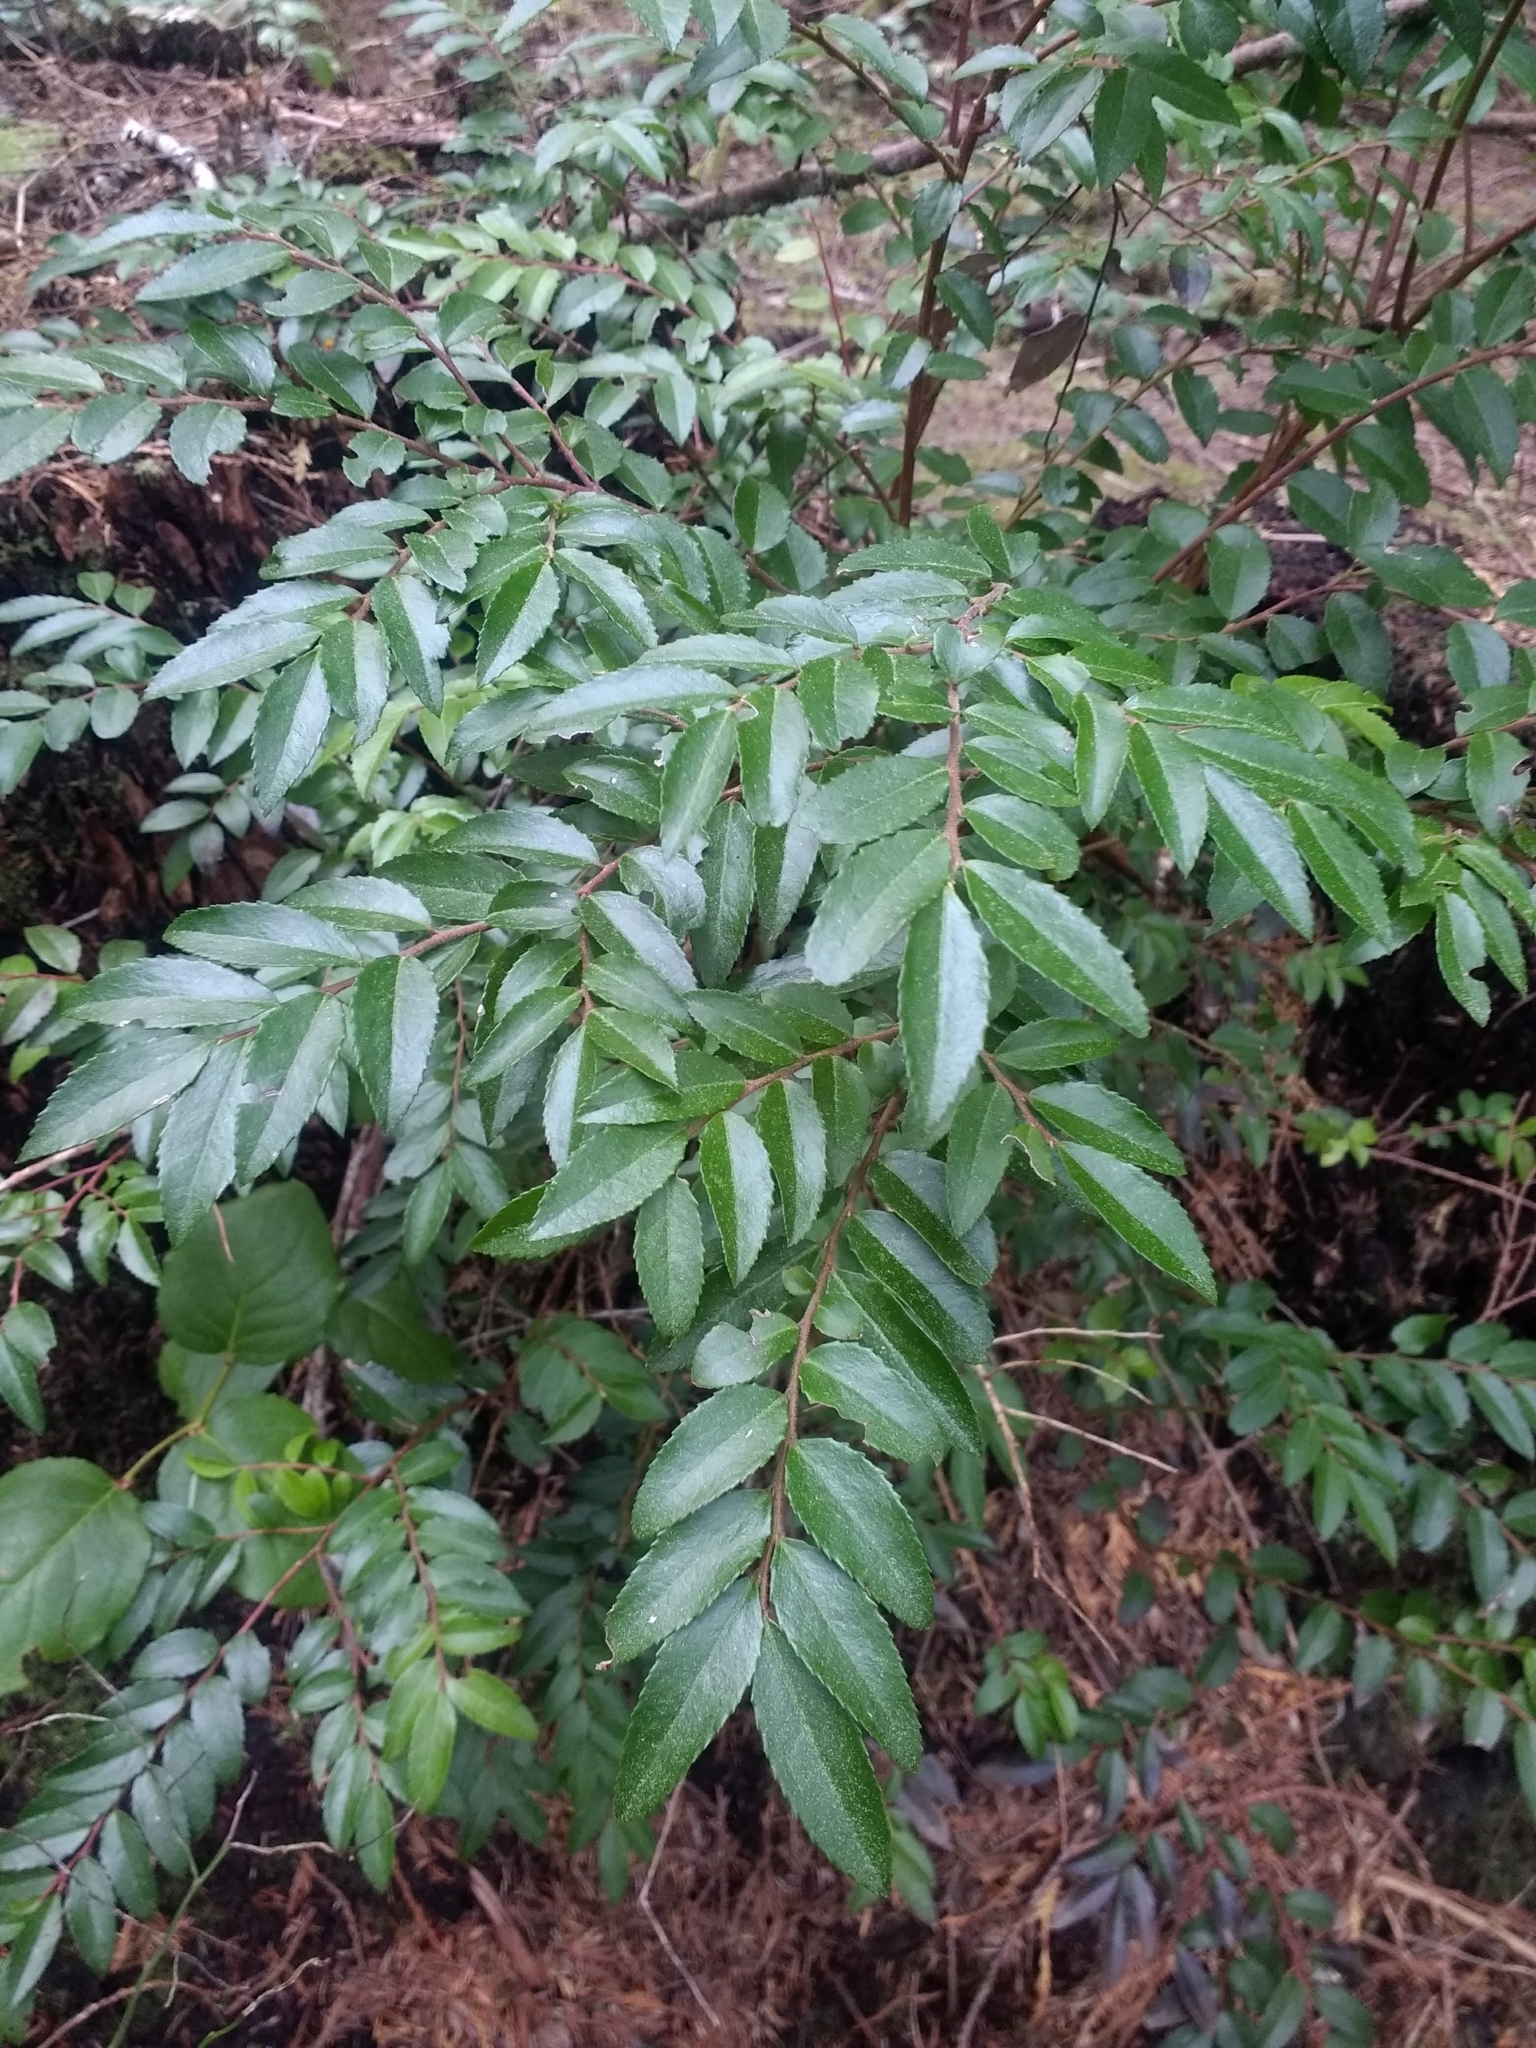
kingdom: Plantae
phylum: Tracheophyta
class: Magnoliopsida
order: Ericales
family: Ericaceae
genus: Vaccinium
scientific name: Vaccinium ovatum
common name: California-huckleberry
